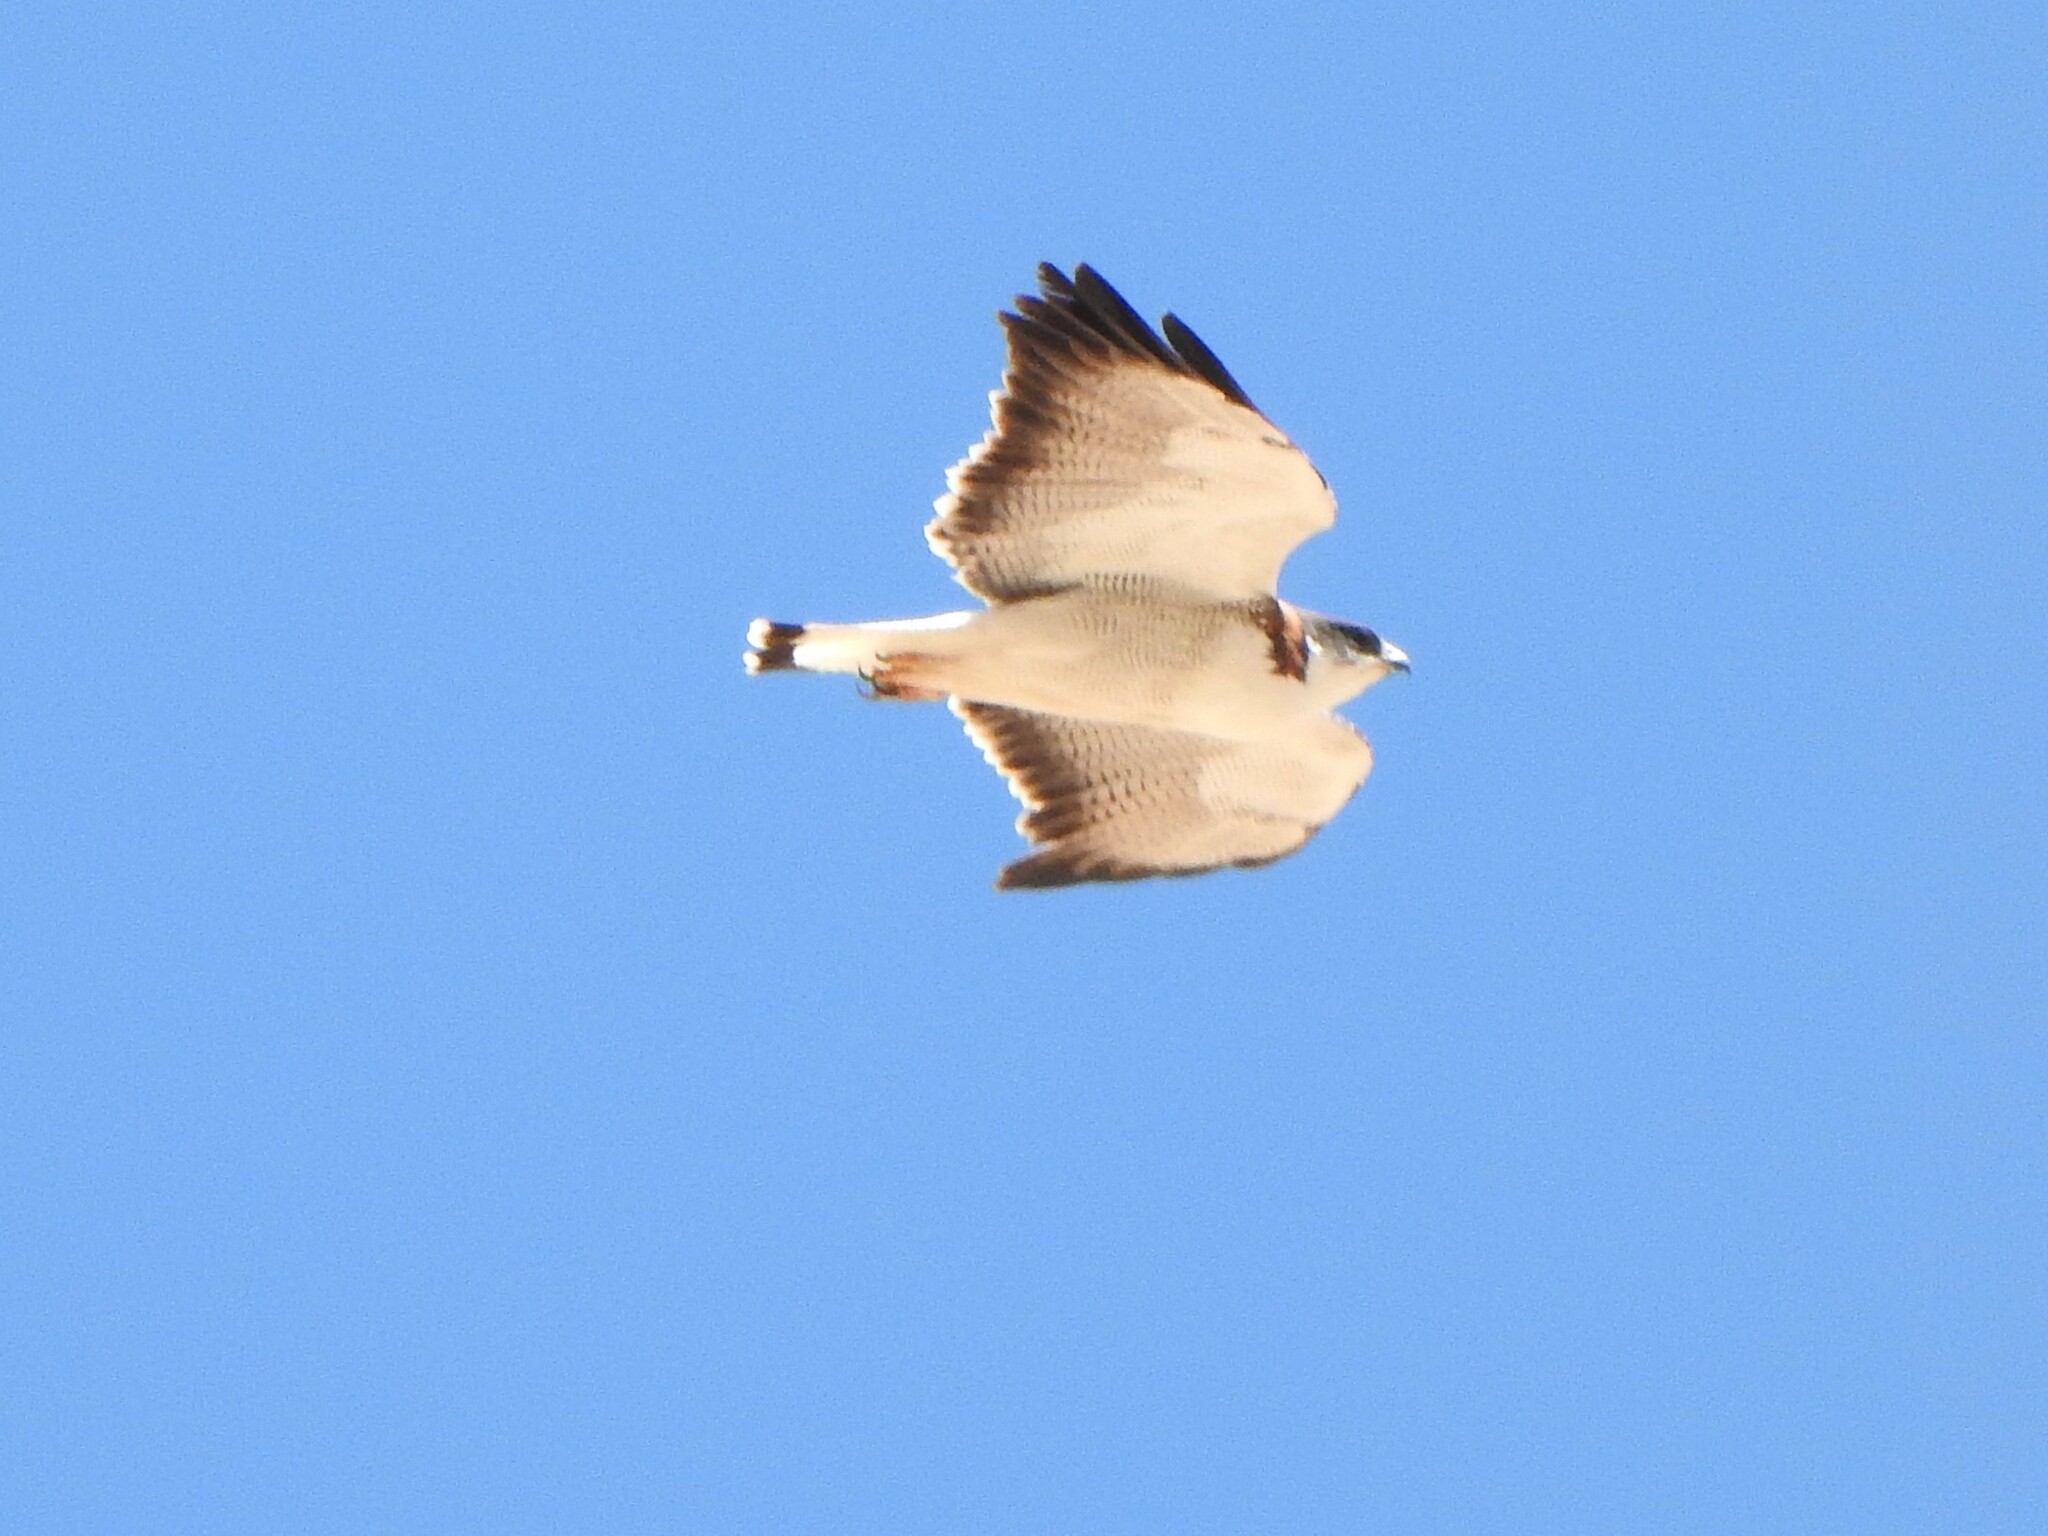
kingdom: Animalia
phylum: Chordata
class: Aves
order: Accipitriformes
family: Accipitridae
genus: Buteo
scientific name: Buteo polyosoma
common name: Variable hawk
